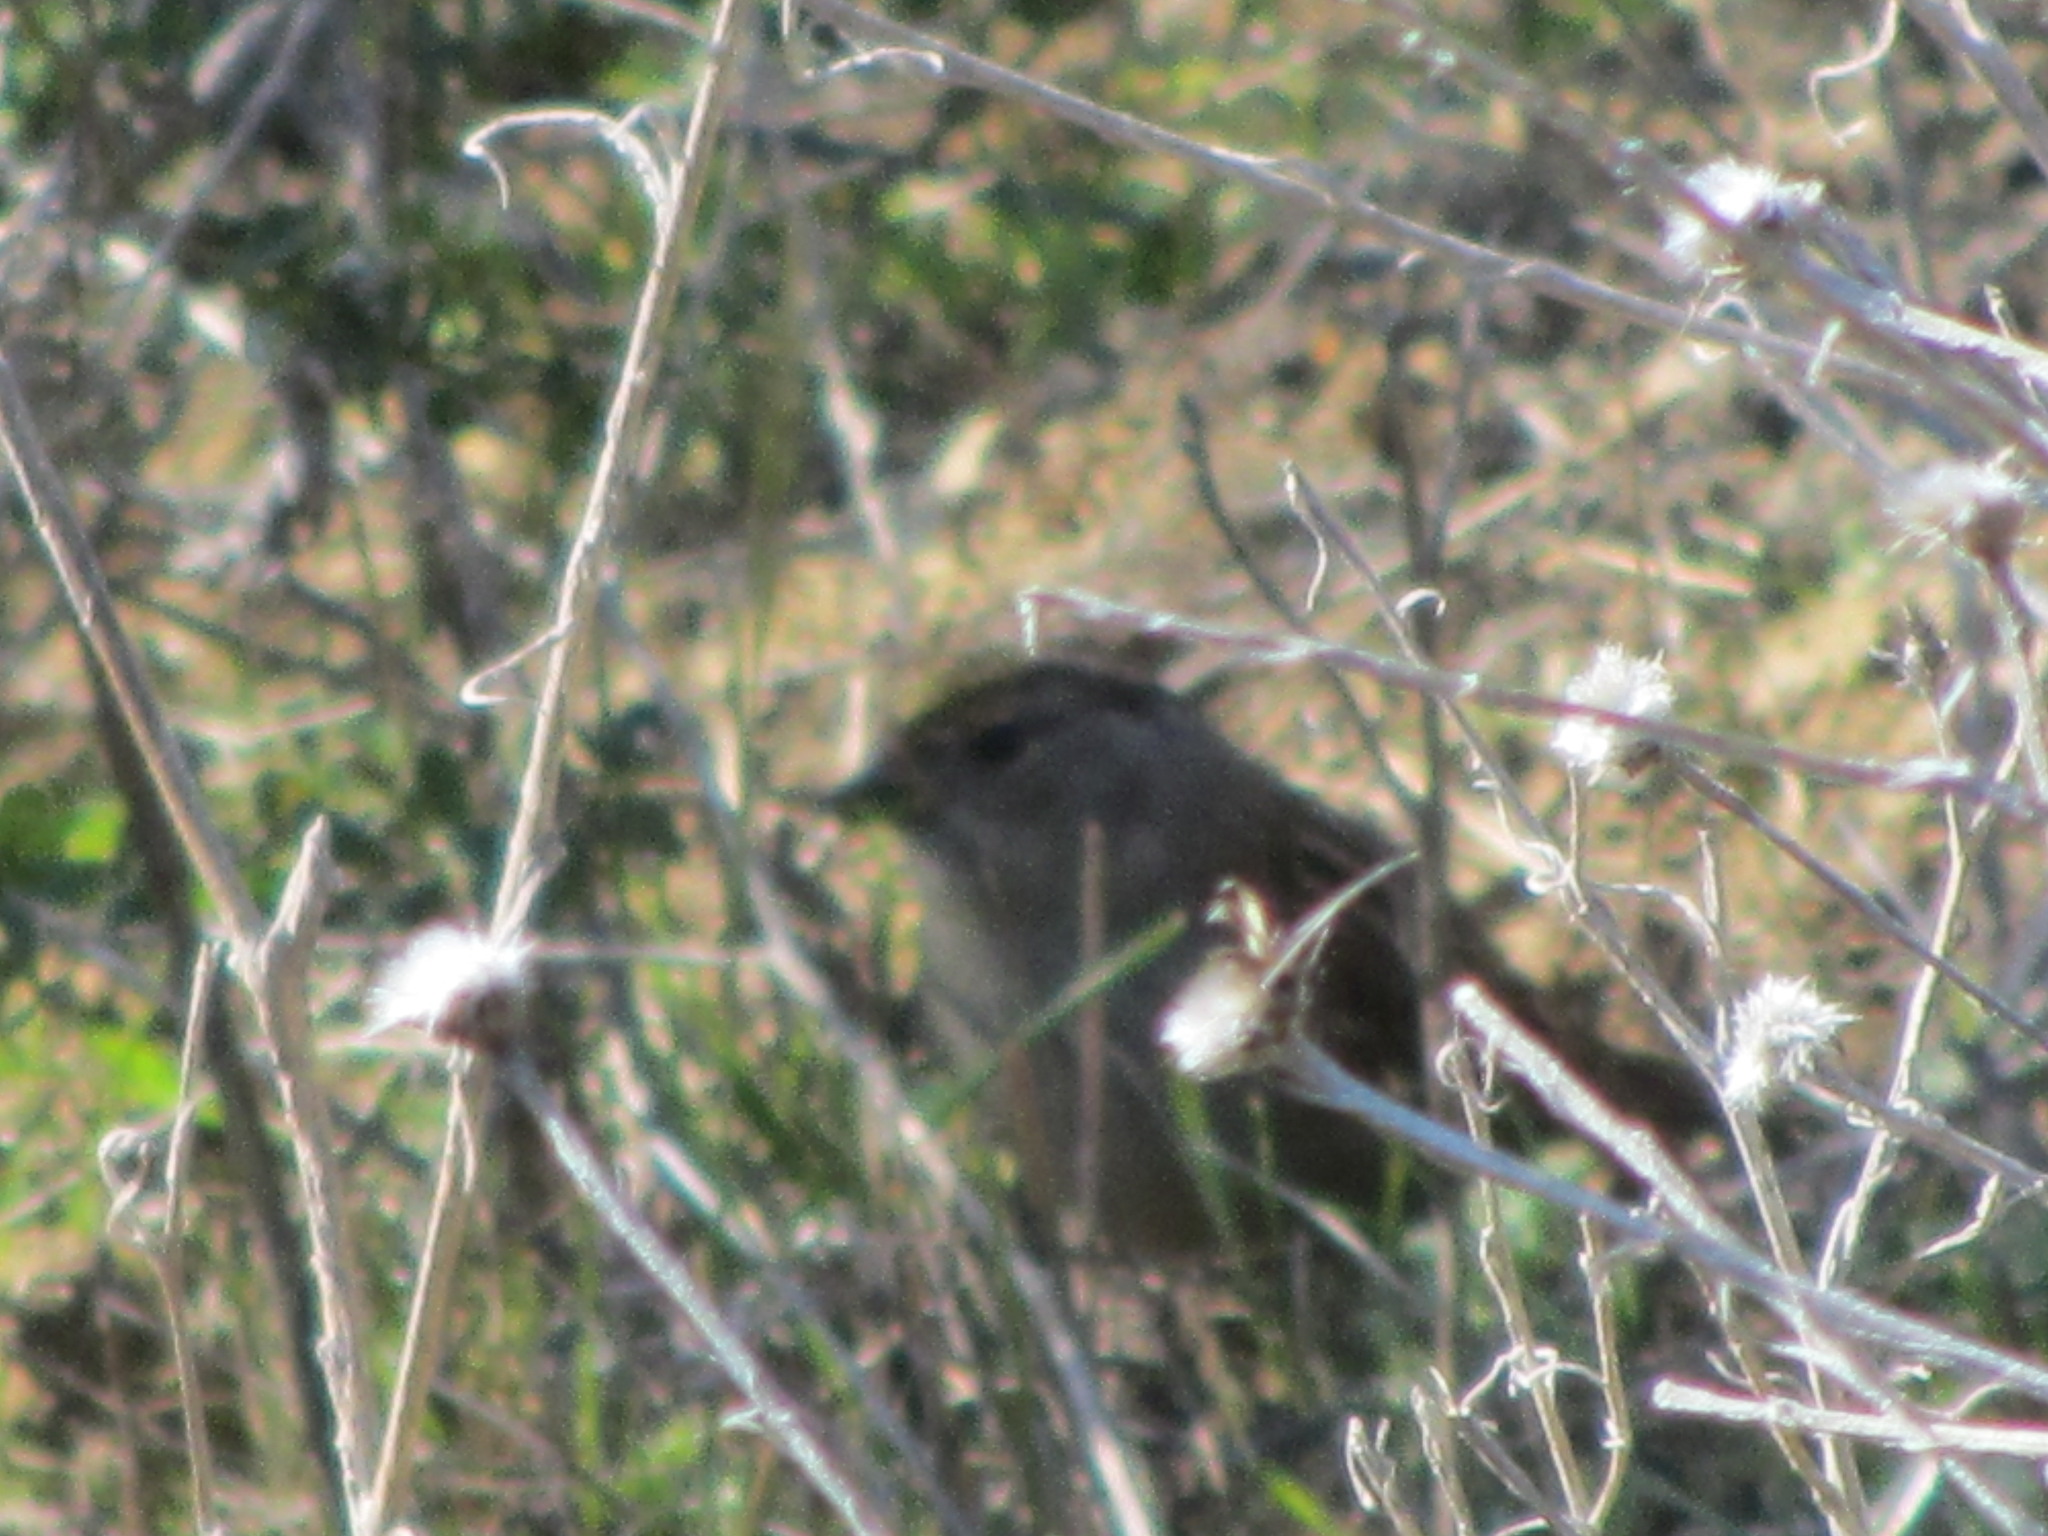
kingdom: Animalia
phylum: Chordata
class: Aves
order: Passeriformes
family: Passerellidae
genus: Zonotrichia
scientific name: Zonotrichia atricapilla
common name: Golden-crowned sparrow
